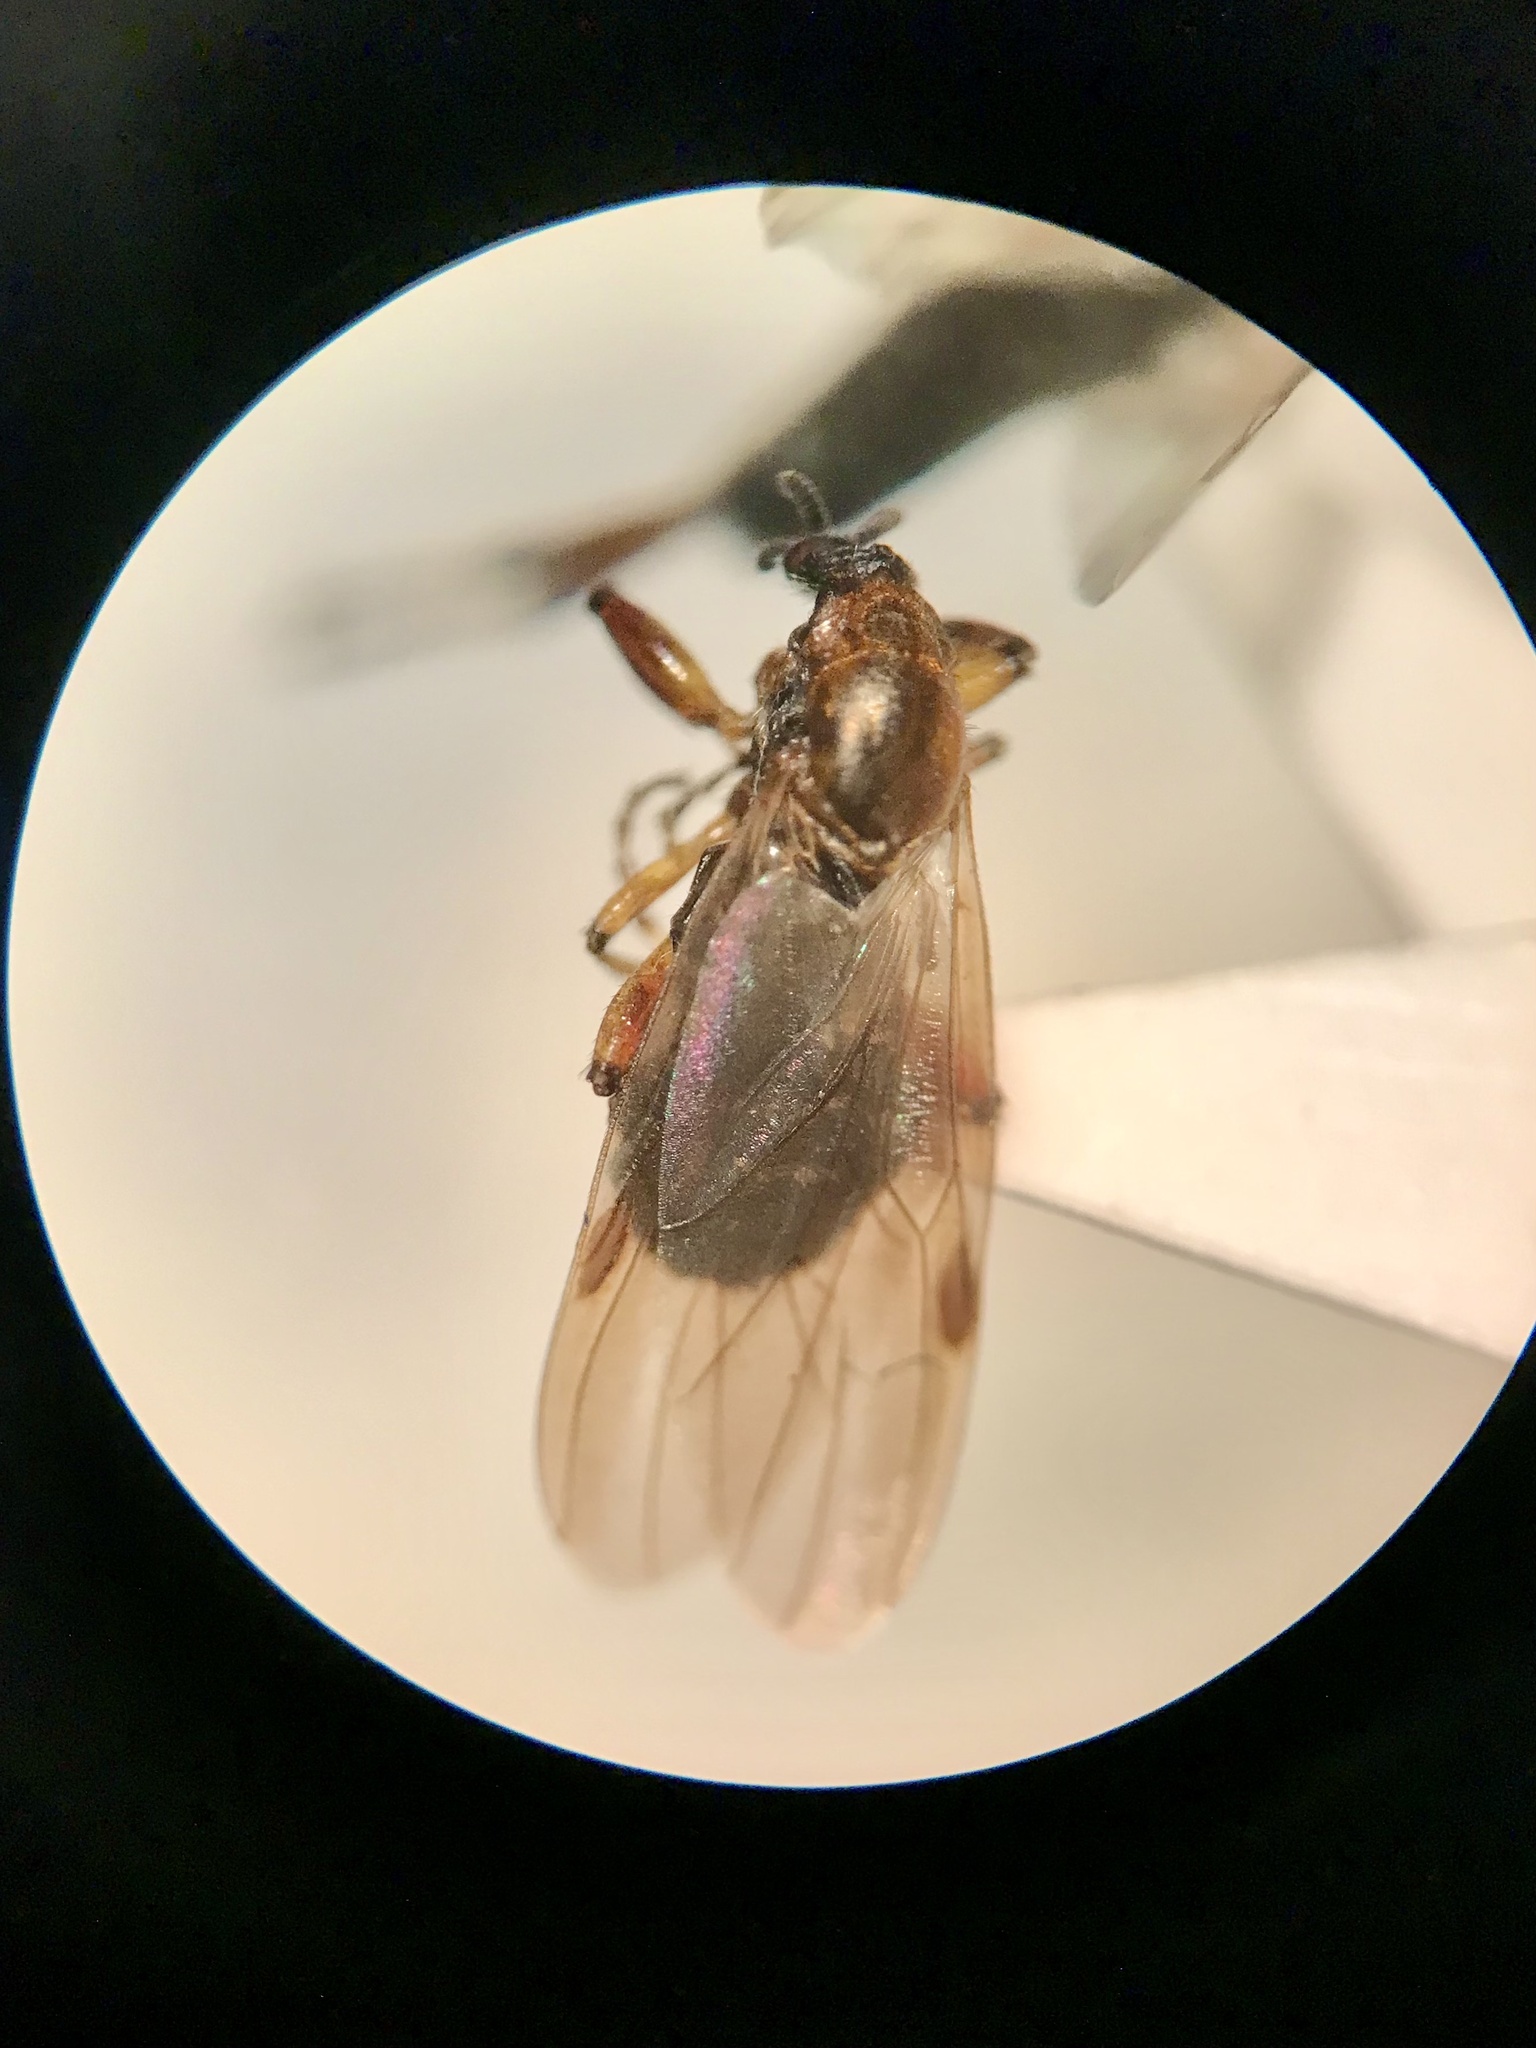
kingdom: Animalia
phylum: Arthropoda
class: Insecta
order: Diptera
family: Bibionidae
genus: Bibio
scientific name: Bibio articulatus
